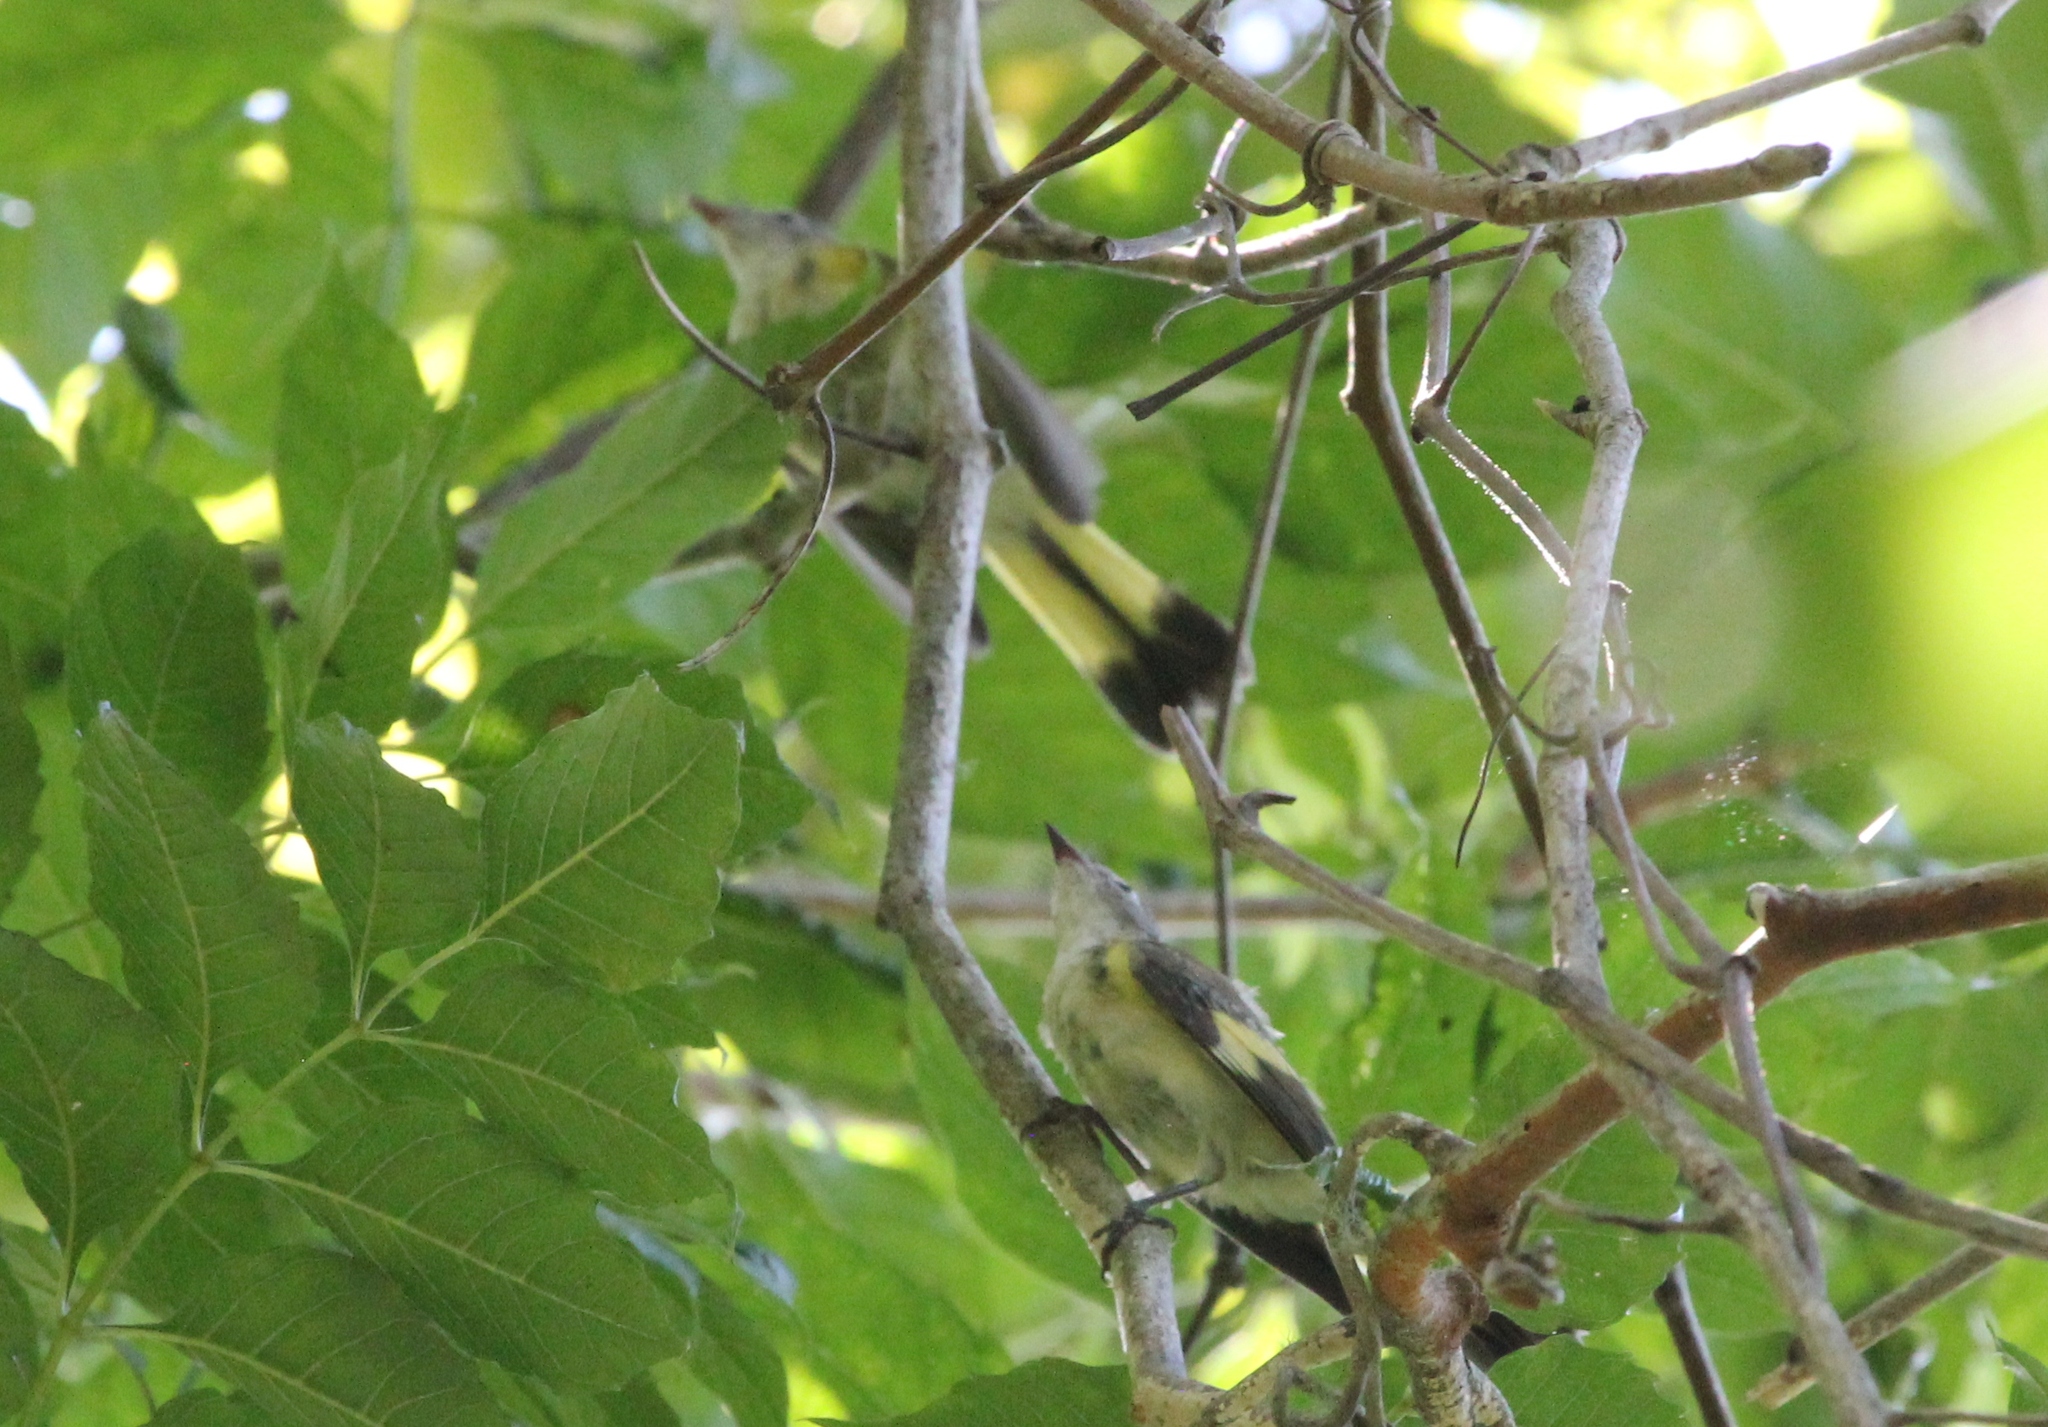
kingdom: Animalia
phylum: Chordata
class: Aves
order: Passeriformes
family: Parulidae
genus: Setophaga
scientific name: Setophaga ruticilla
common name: American redstart
